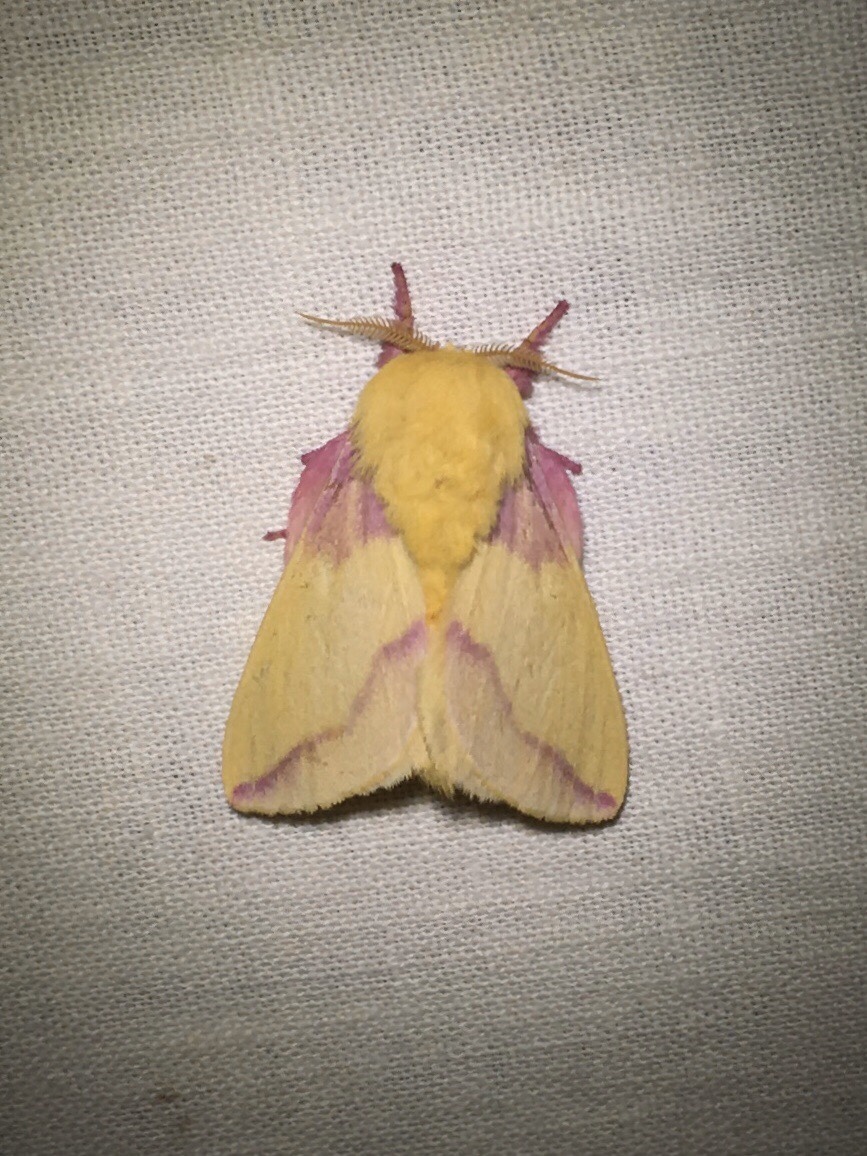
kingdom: Animalia
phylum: Arthropoda
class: Insecta
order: Lepidoptera
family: Saturniidae
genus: Dryocampa
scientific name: Dryocampa rubicunda
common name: Rosy maple moth
